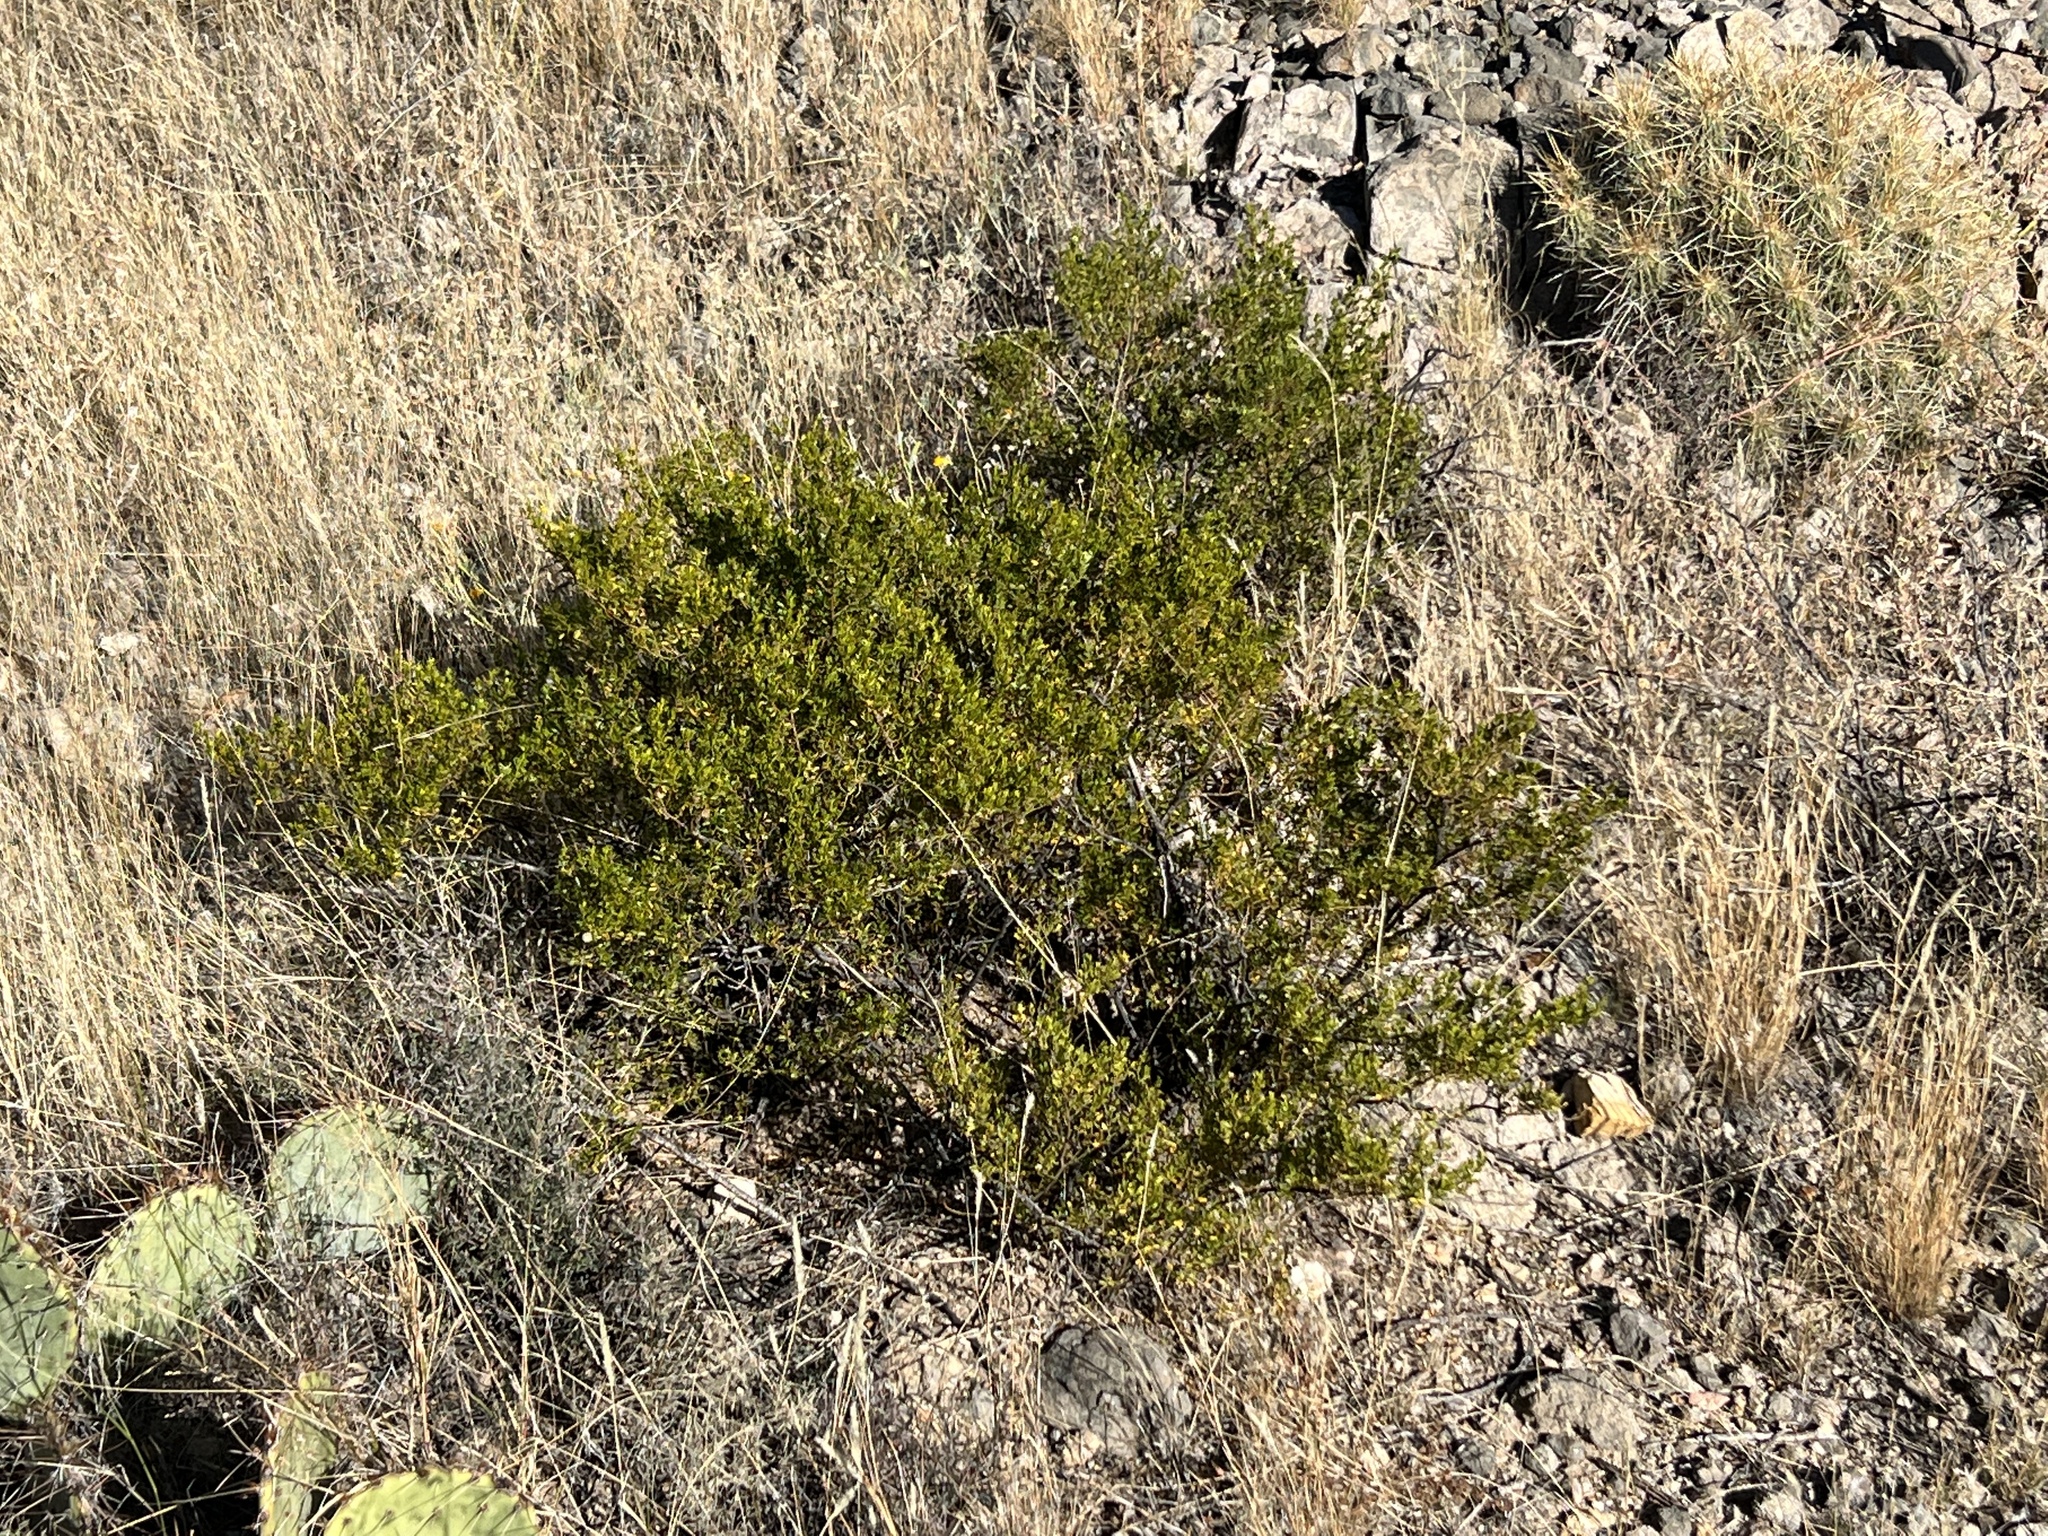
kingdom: Plantae
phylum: Tracheophyta
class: Magnoliopsida
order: Zygophyllales
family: Zygophyllaceae
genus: Larrea
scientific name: Larrea tridentata
